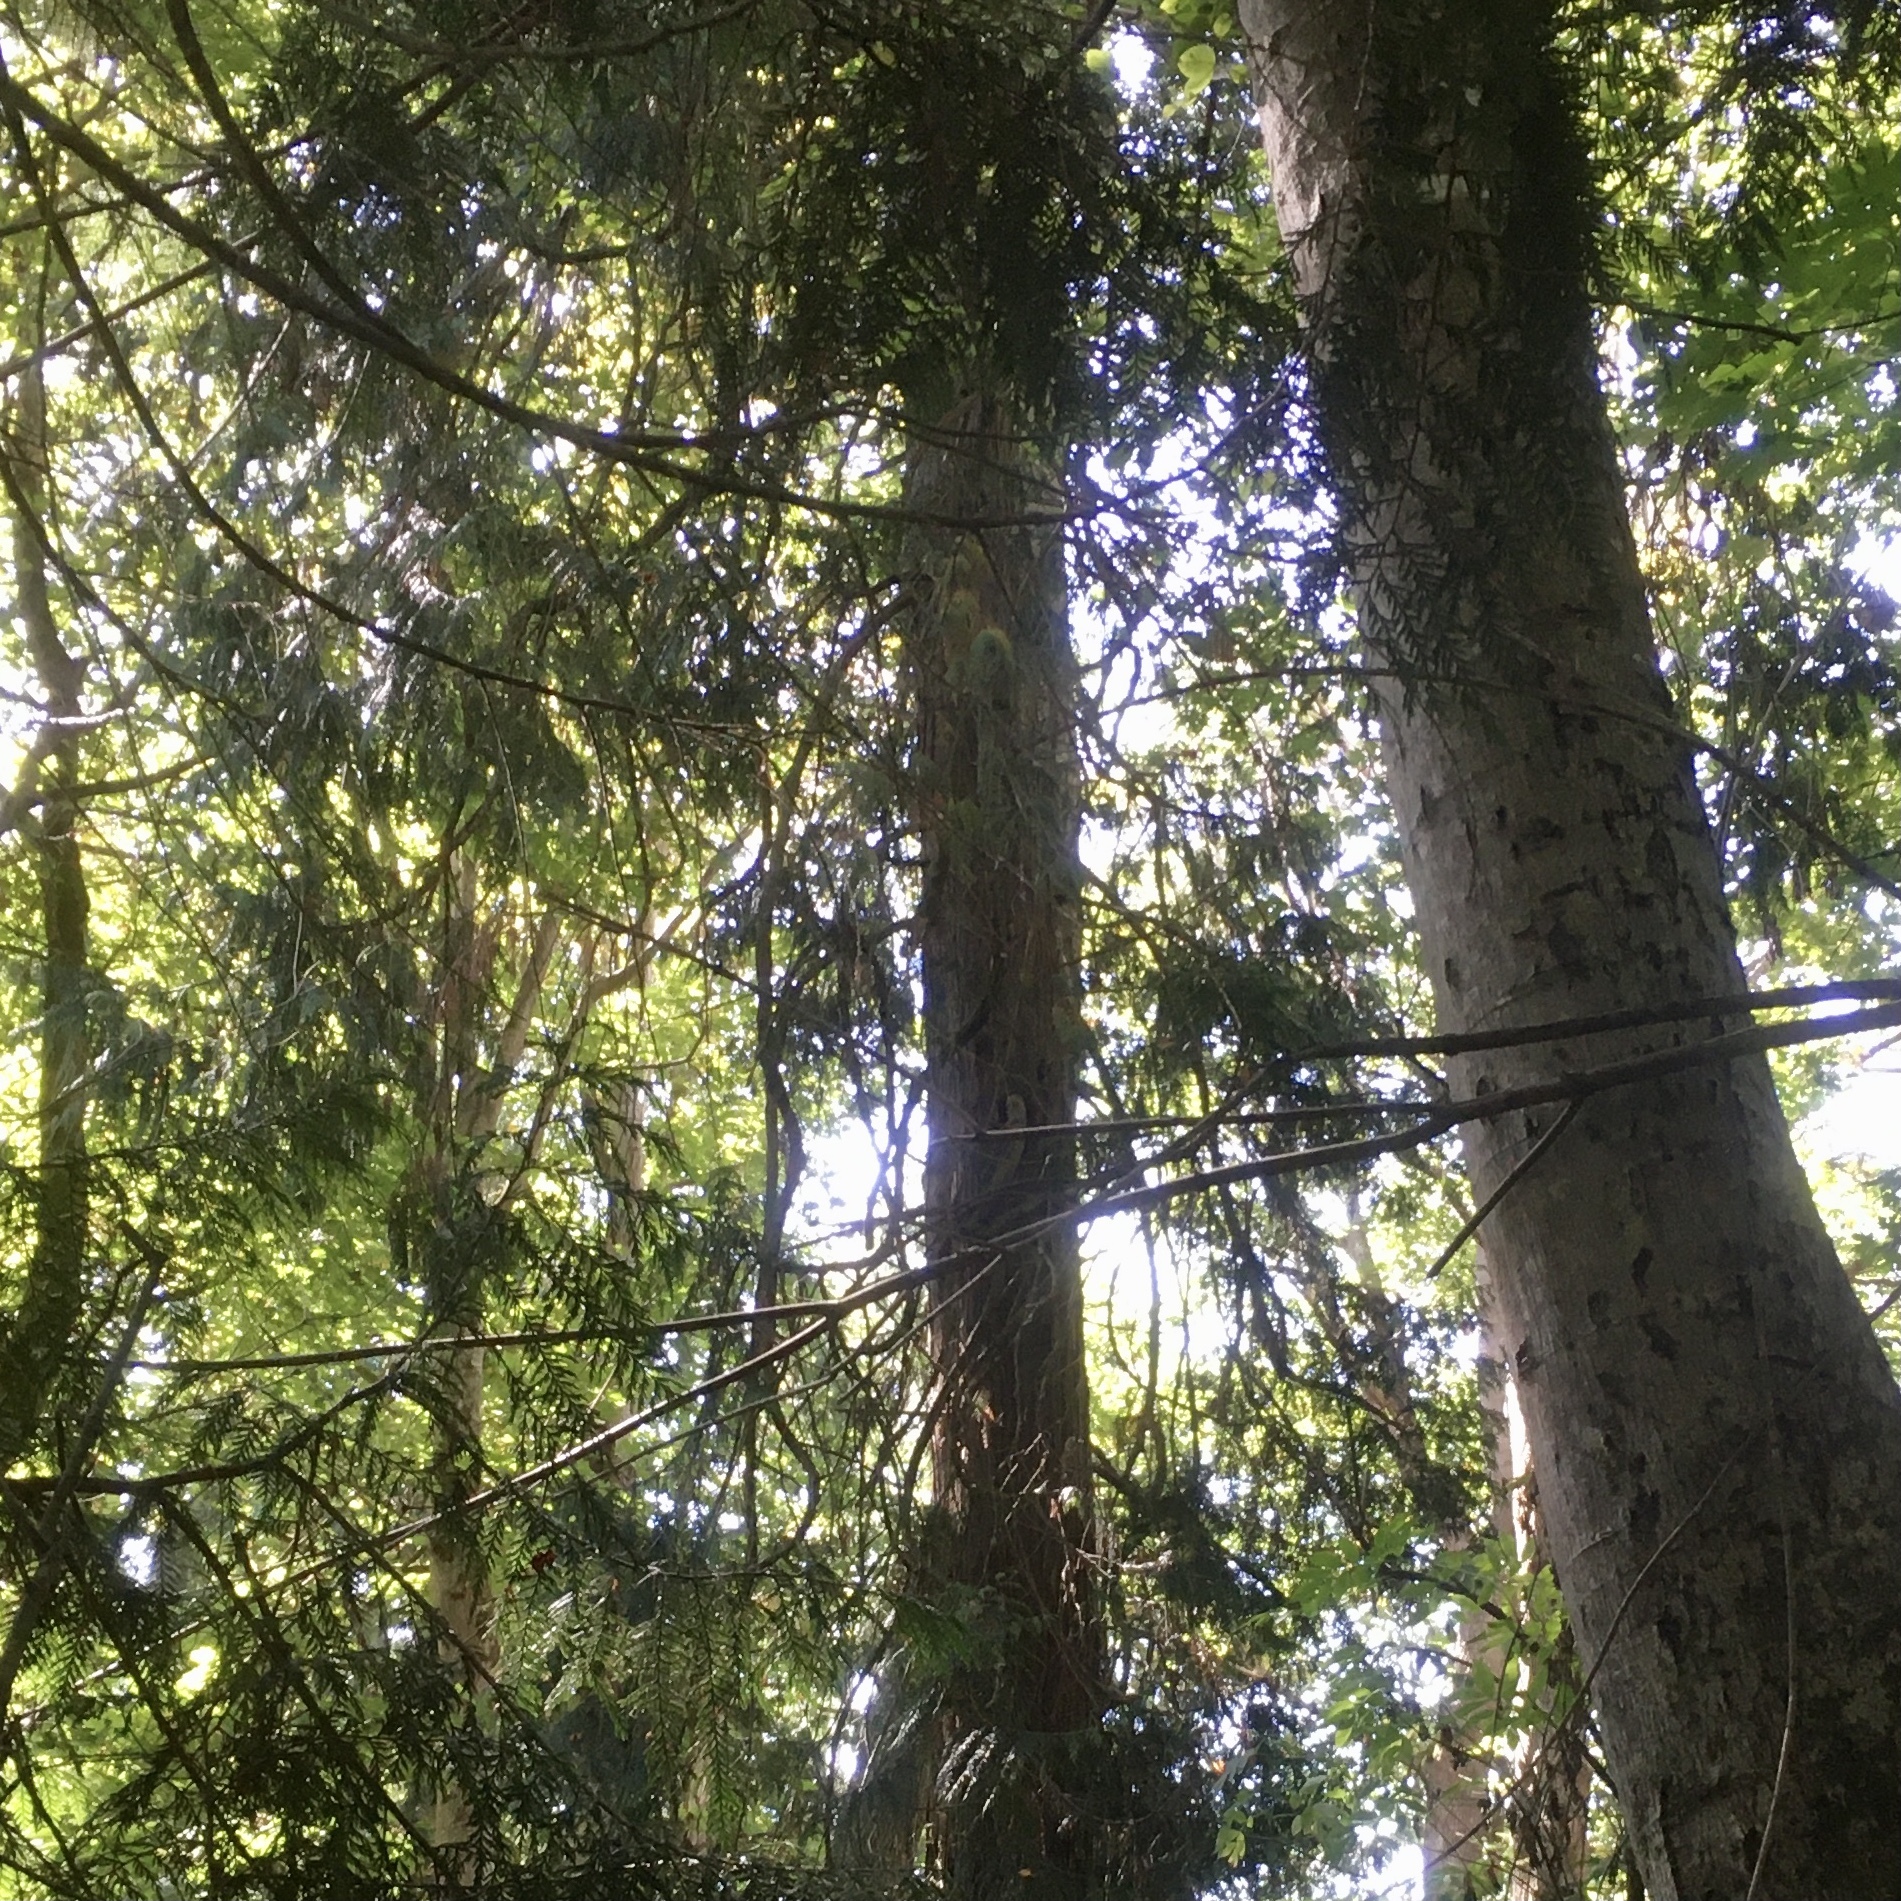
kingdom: Plantae
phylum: Tracheophyta
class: Pinopsida
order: Pinales
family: Cupressaceae
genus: Thuja
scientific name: Thuja plicata
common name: Western red-cedar
